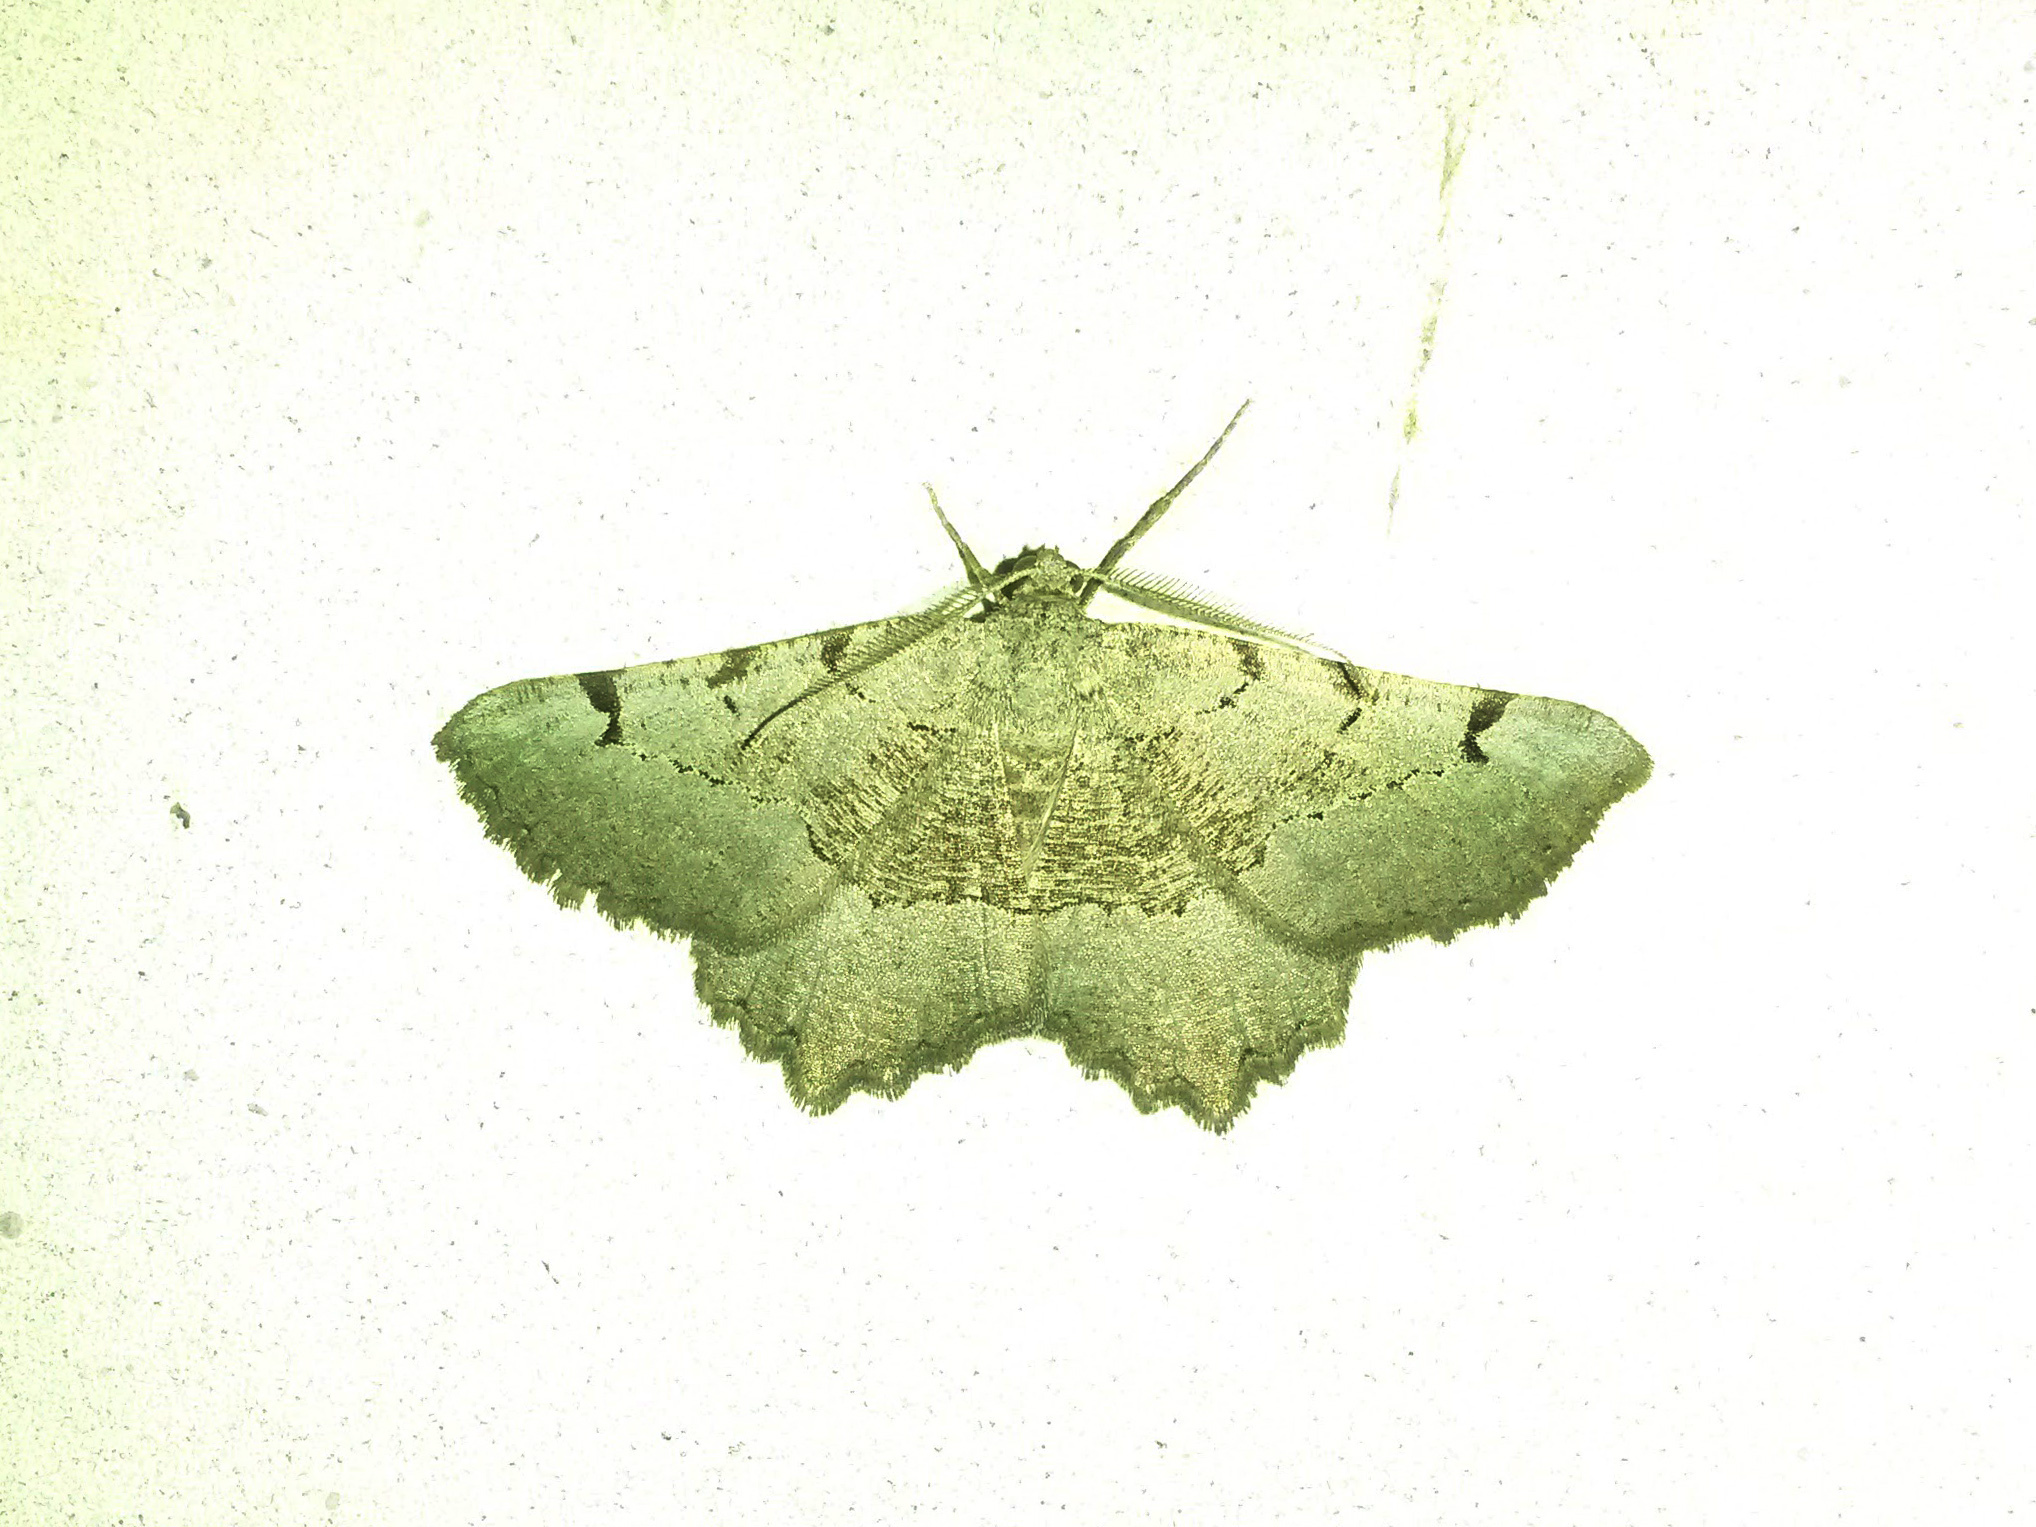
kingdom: Animalia
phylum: Arthropoda
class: Insecta
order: Lepidoptera
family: Geometridae
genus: Neognopharmia
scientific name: Neognopharmia stevenaria
